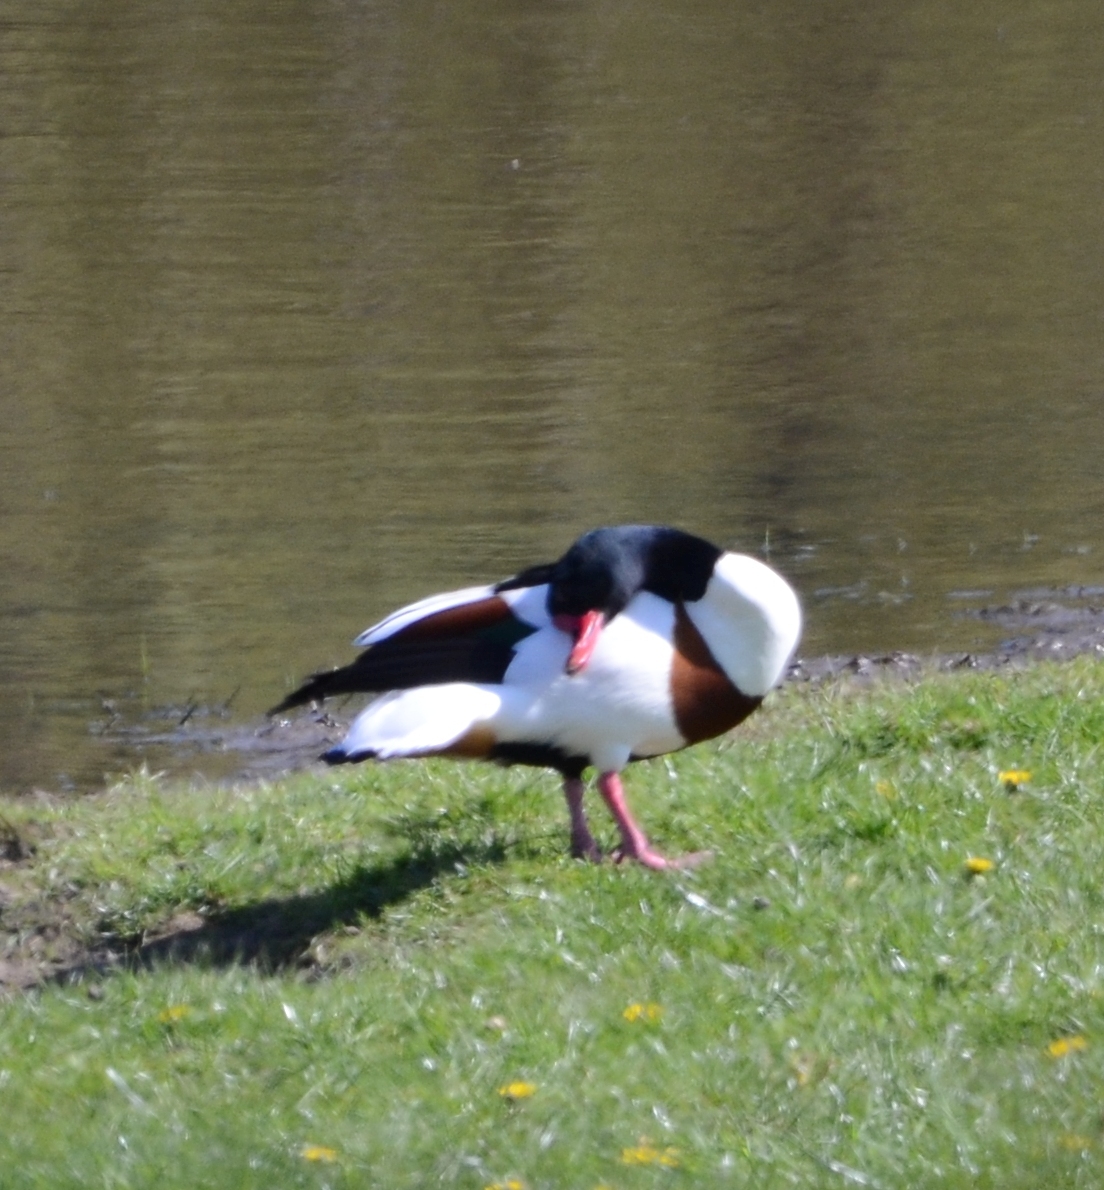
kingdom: Animalia
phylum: Chordata
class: Aves
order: Anseriformes
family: Anatidae
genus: Tadorna
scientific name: Tadorna tadorna
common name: Common shelduck
